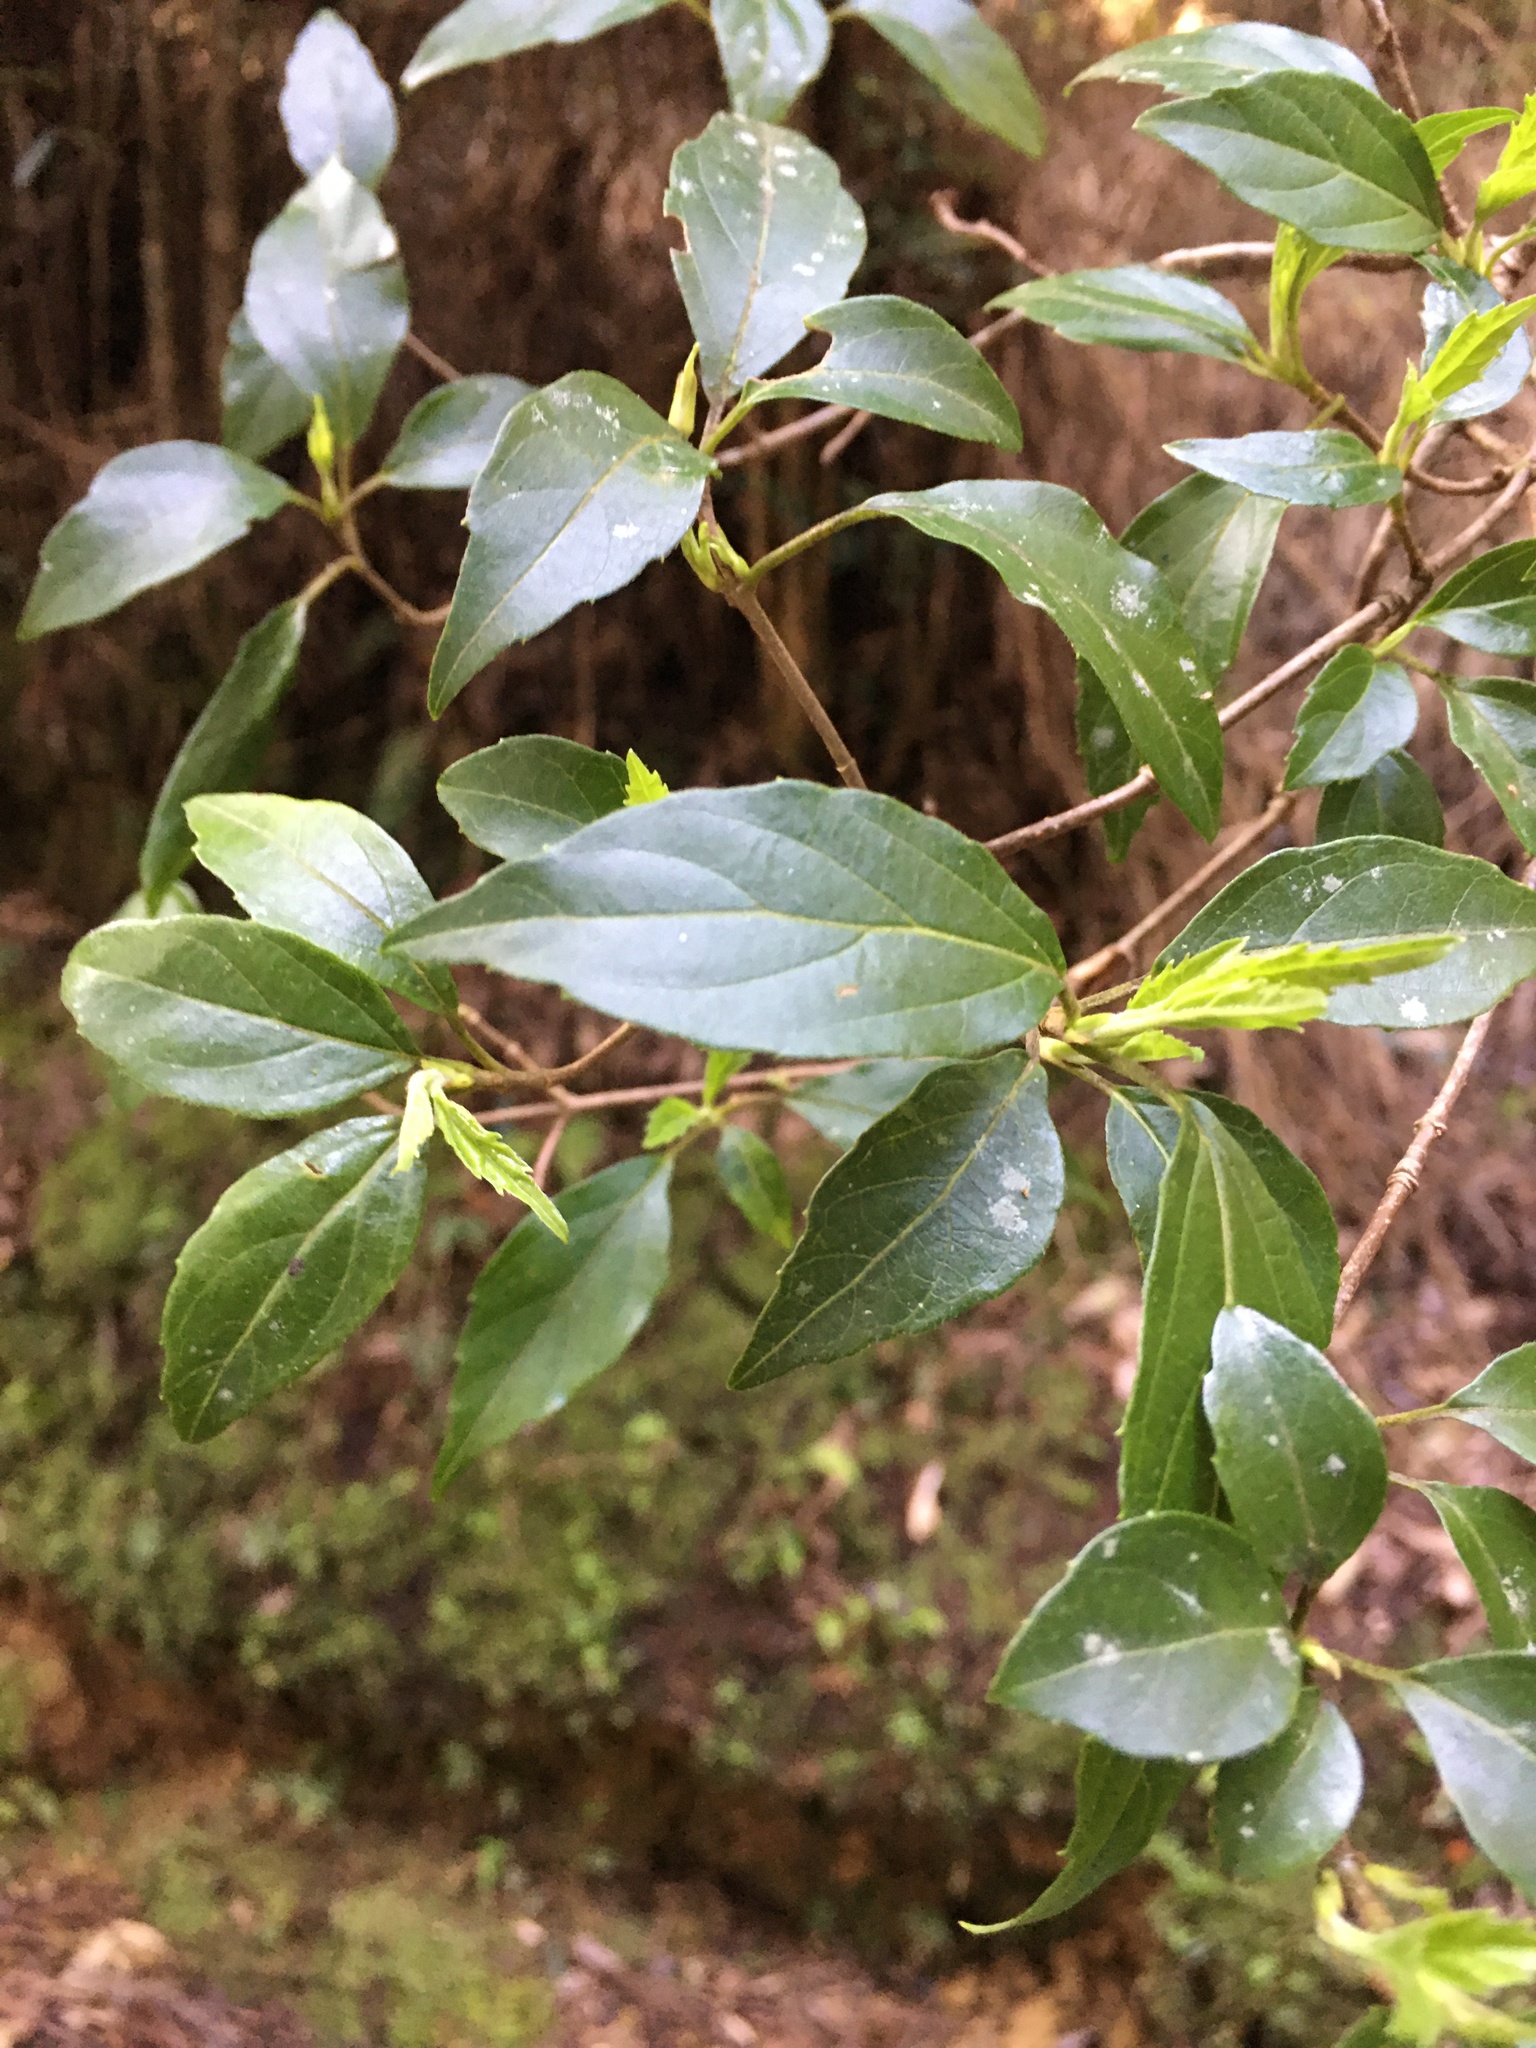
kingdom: Plantae
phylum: Tracheophyta
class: Magnoliopsida
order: Dipsacales
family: Viburnaceae
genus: Viburnum
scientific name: Viburnum foetidum
